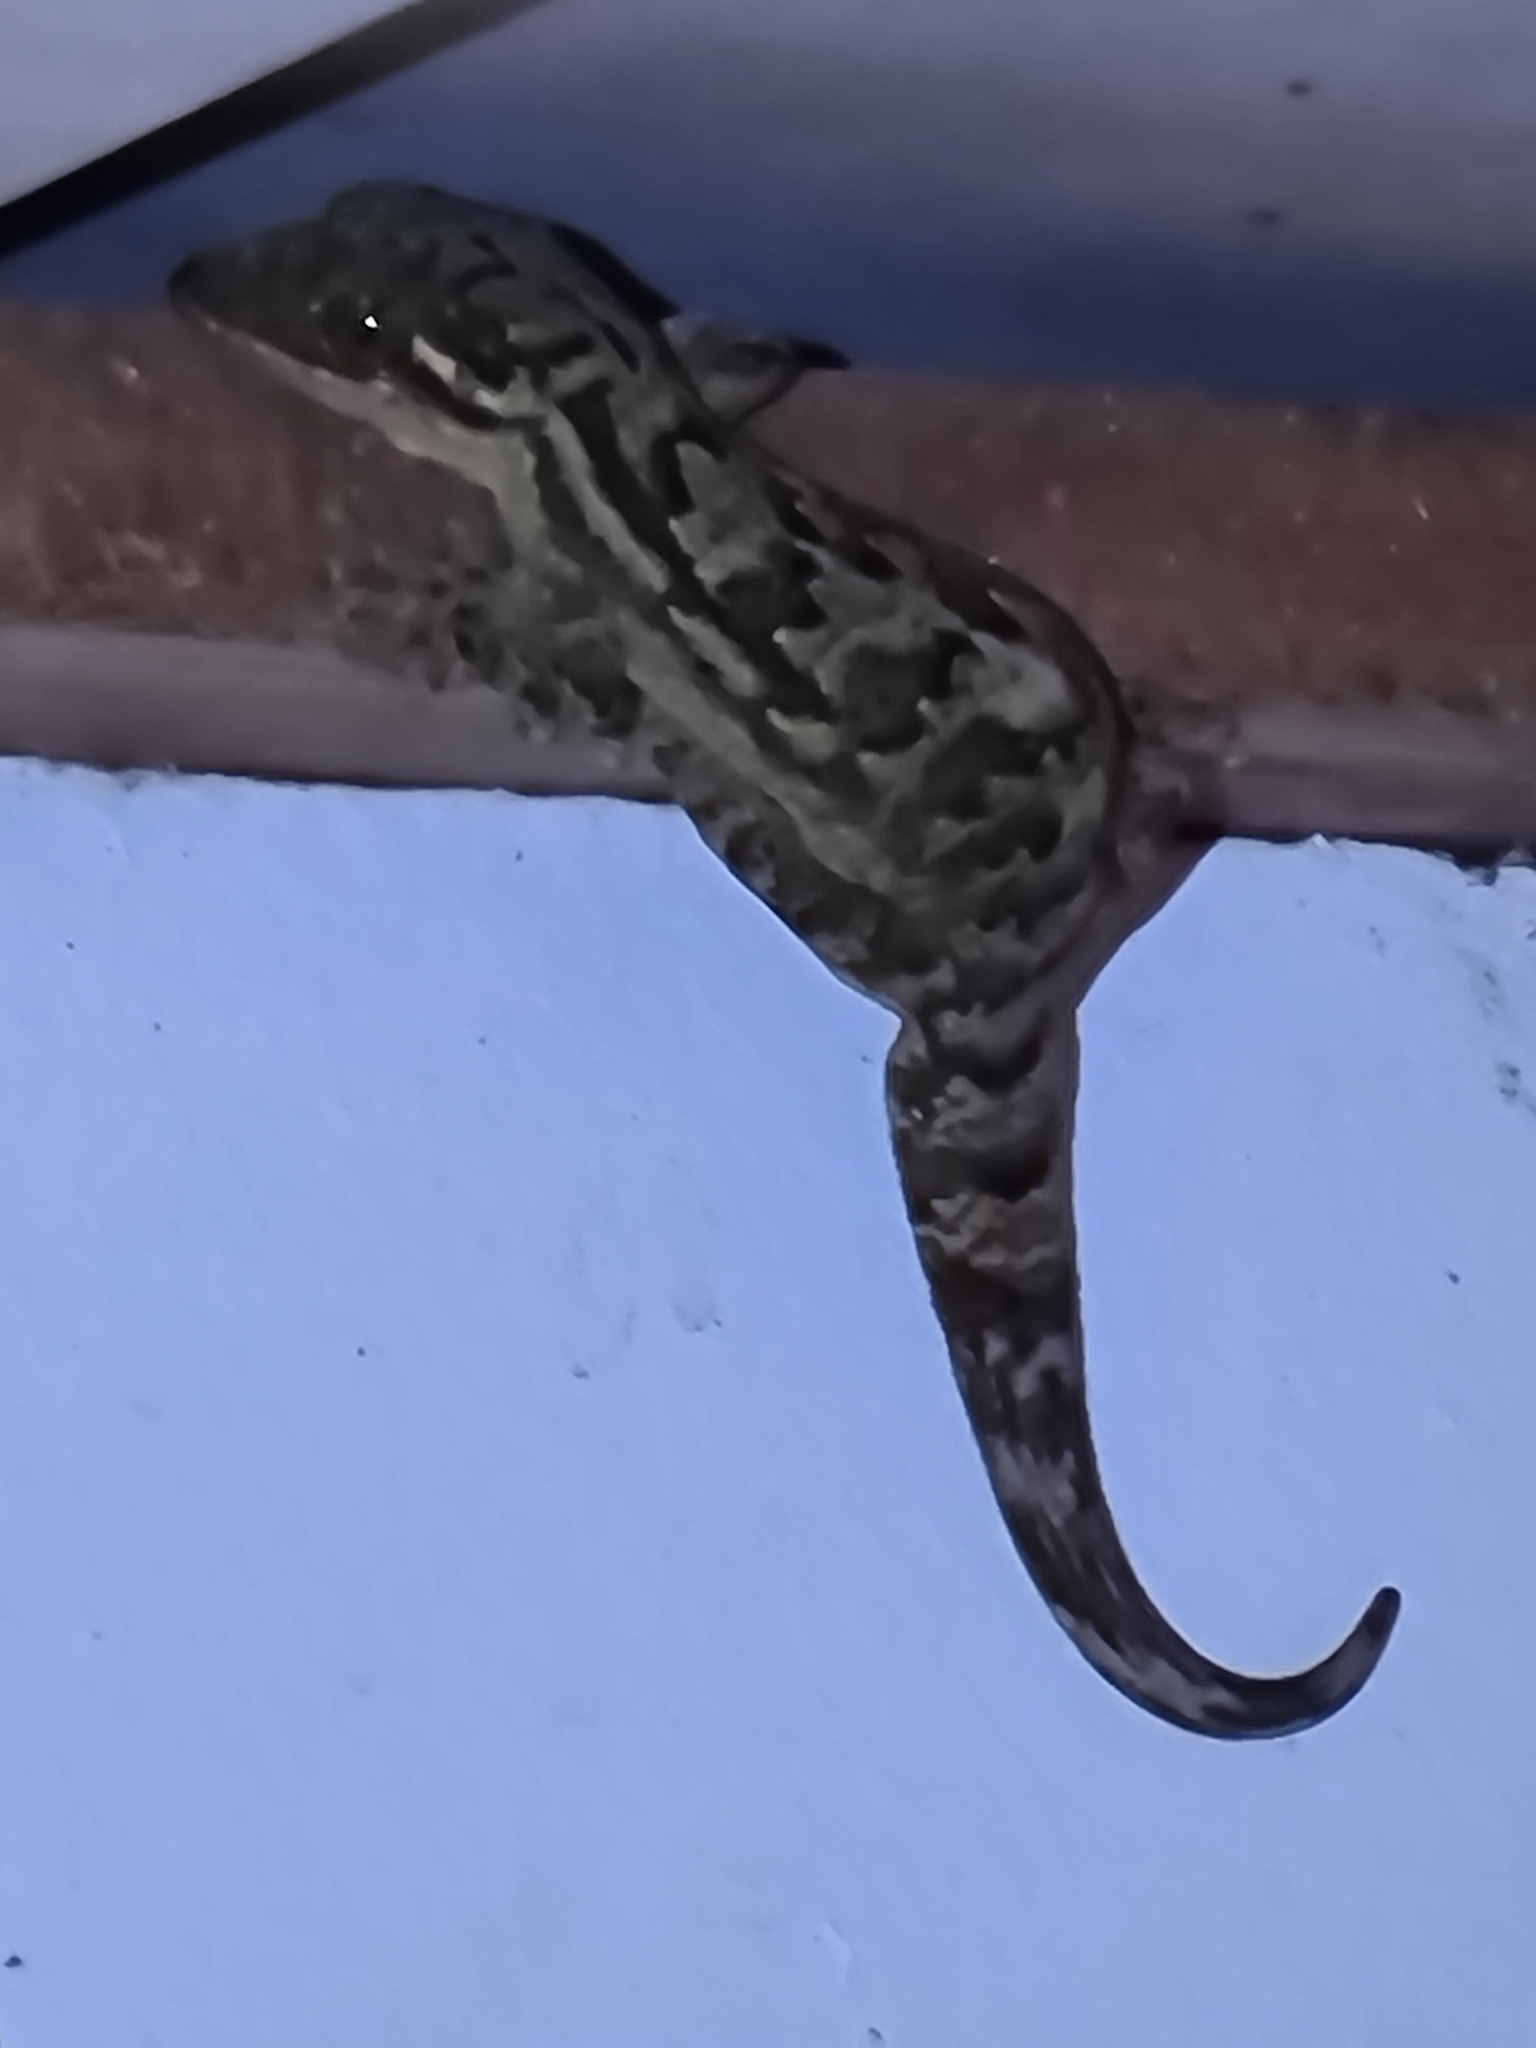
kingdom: Animalia
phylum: Chordata
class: Squamata
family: Phyllodactylidae
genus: Thecadactylus
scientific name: Thecadactylus rapicauda
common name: Turnip-tailed gecko
